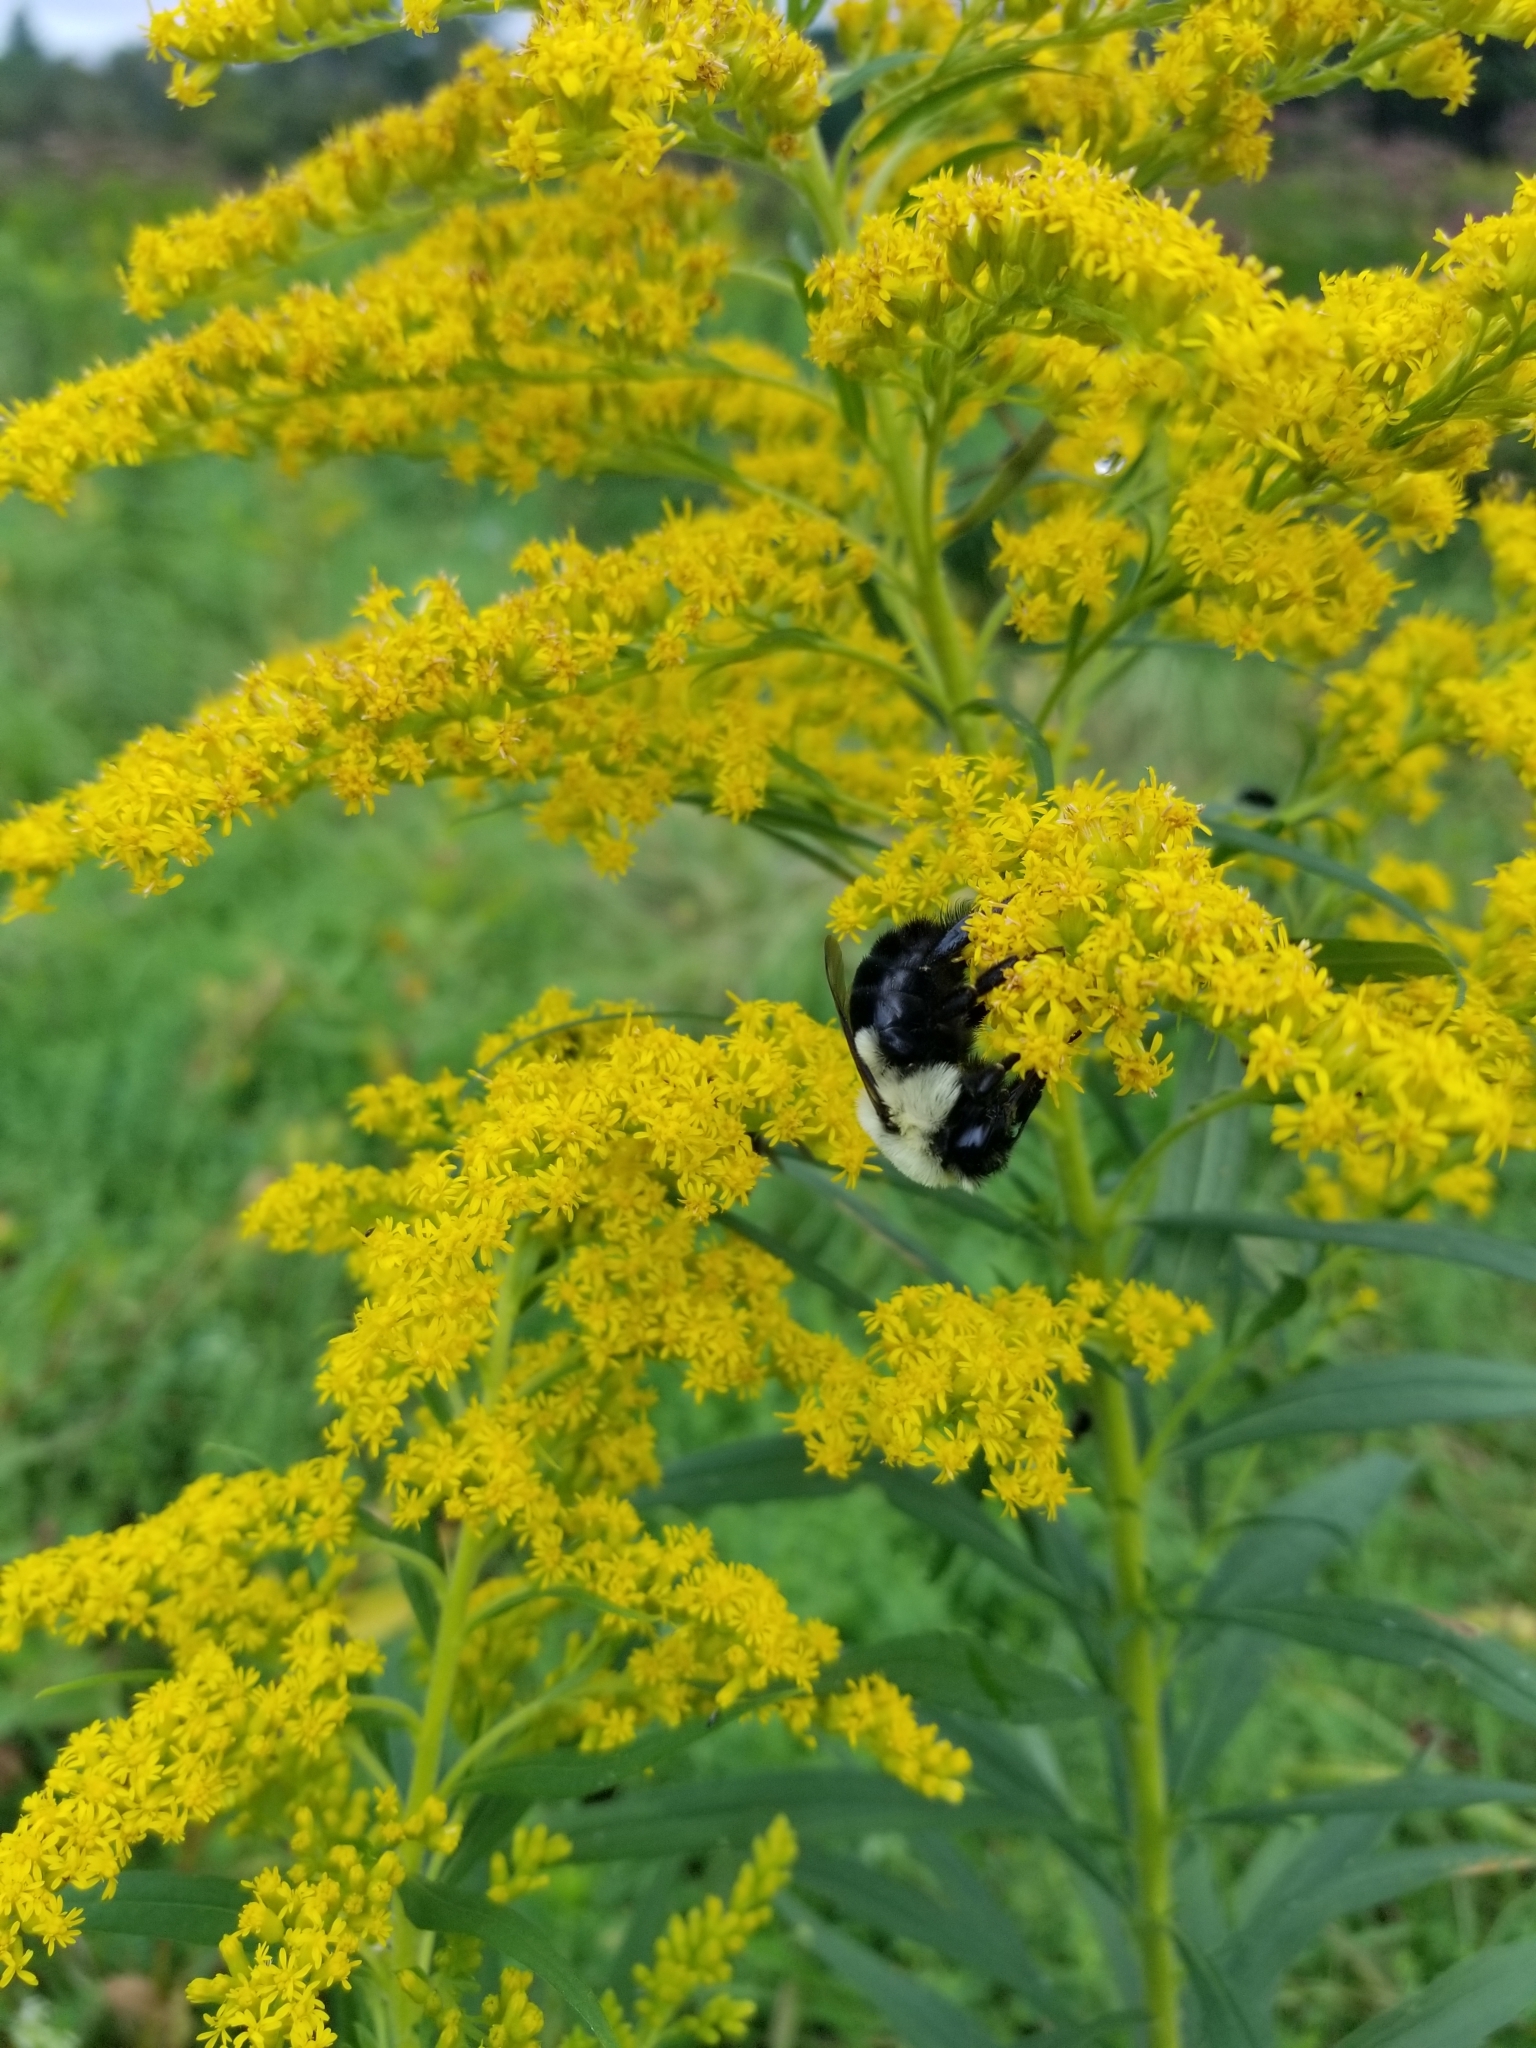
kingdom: Animalia
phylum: Arthropoda
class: Insecta
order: Hymenoptera
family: Apidae
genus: Bombus
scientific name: Bombus impatiens
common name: Common eastern bumble bee
